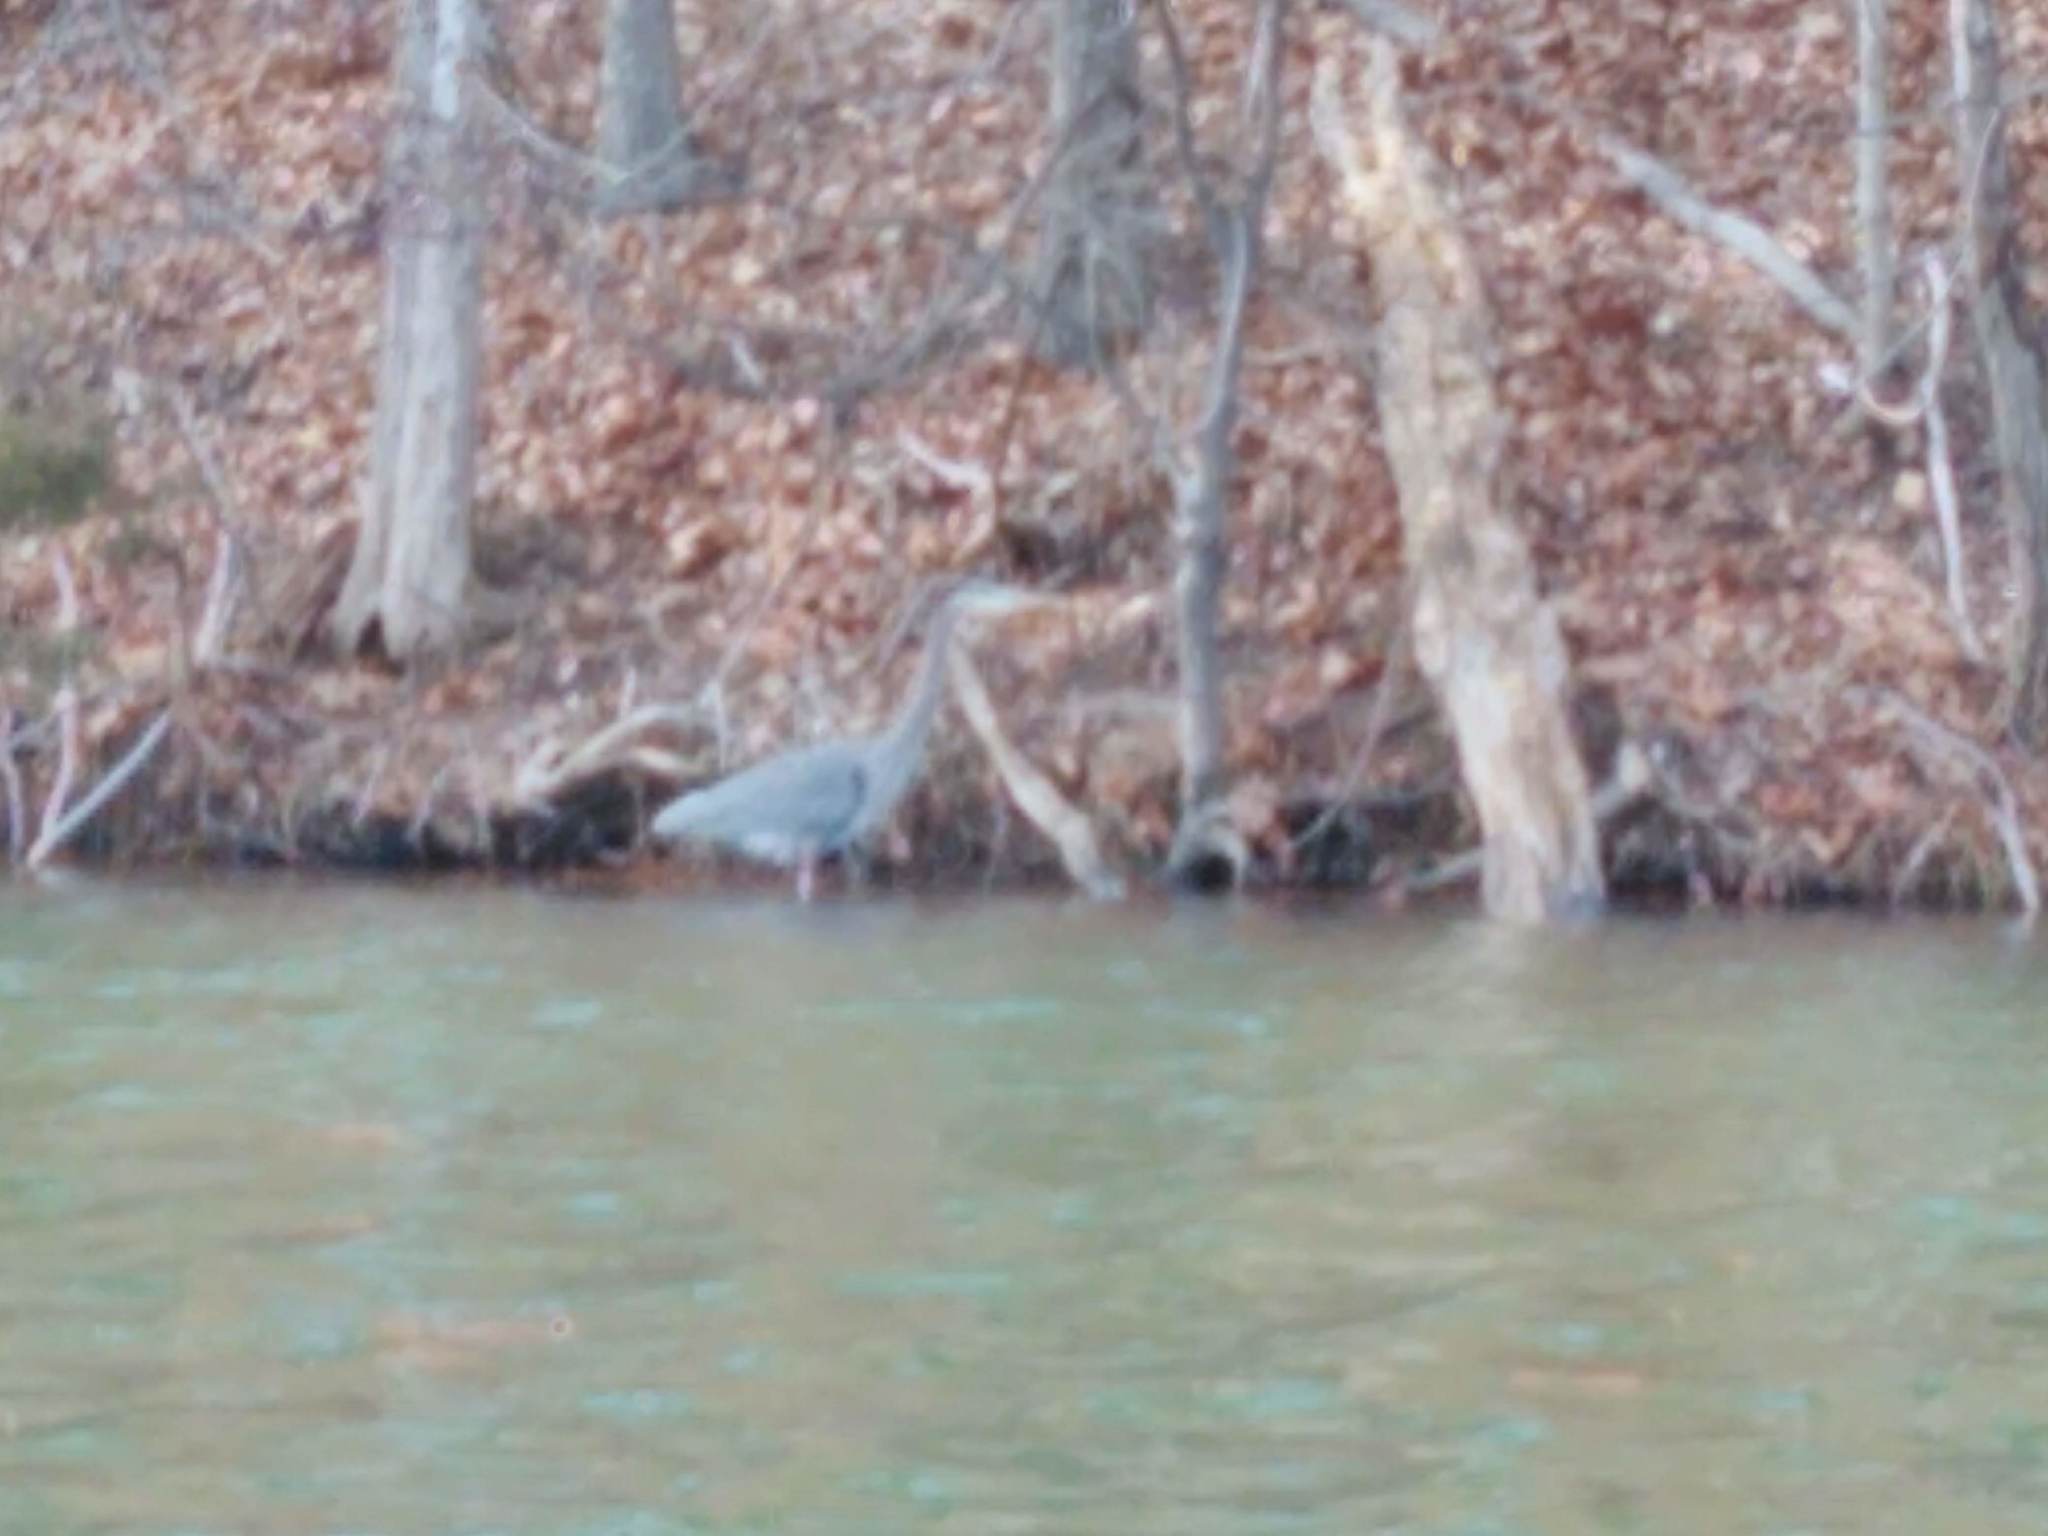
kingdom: Animalia
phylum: Chordata
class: Aves
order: Pelecaniformes
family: Ardeidae
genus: Ardea
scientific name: Ardea herodias
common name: Great blue heron
